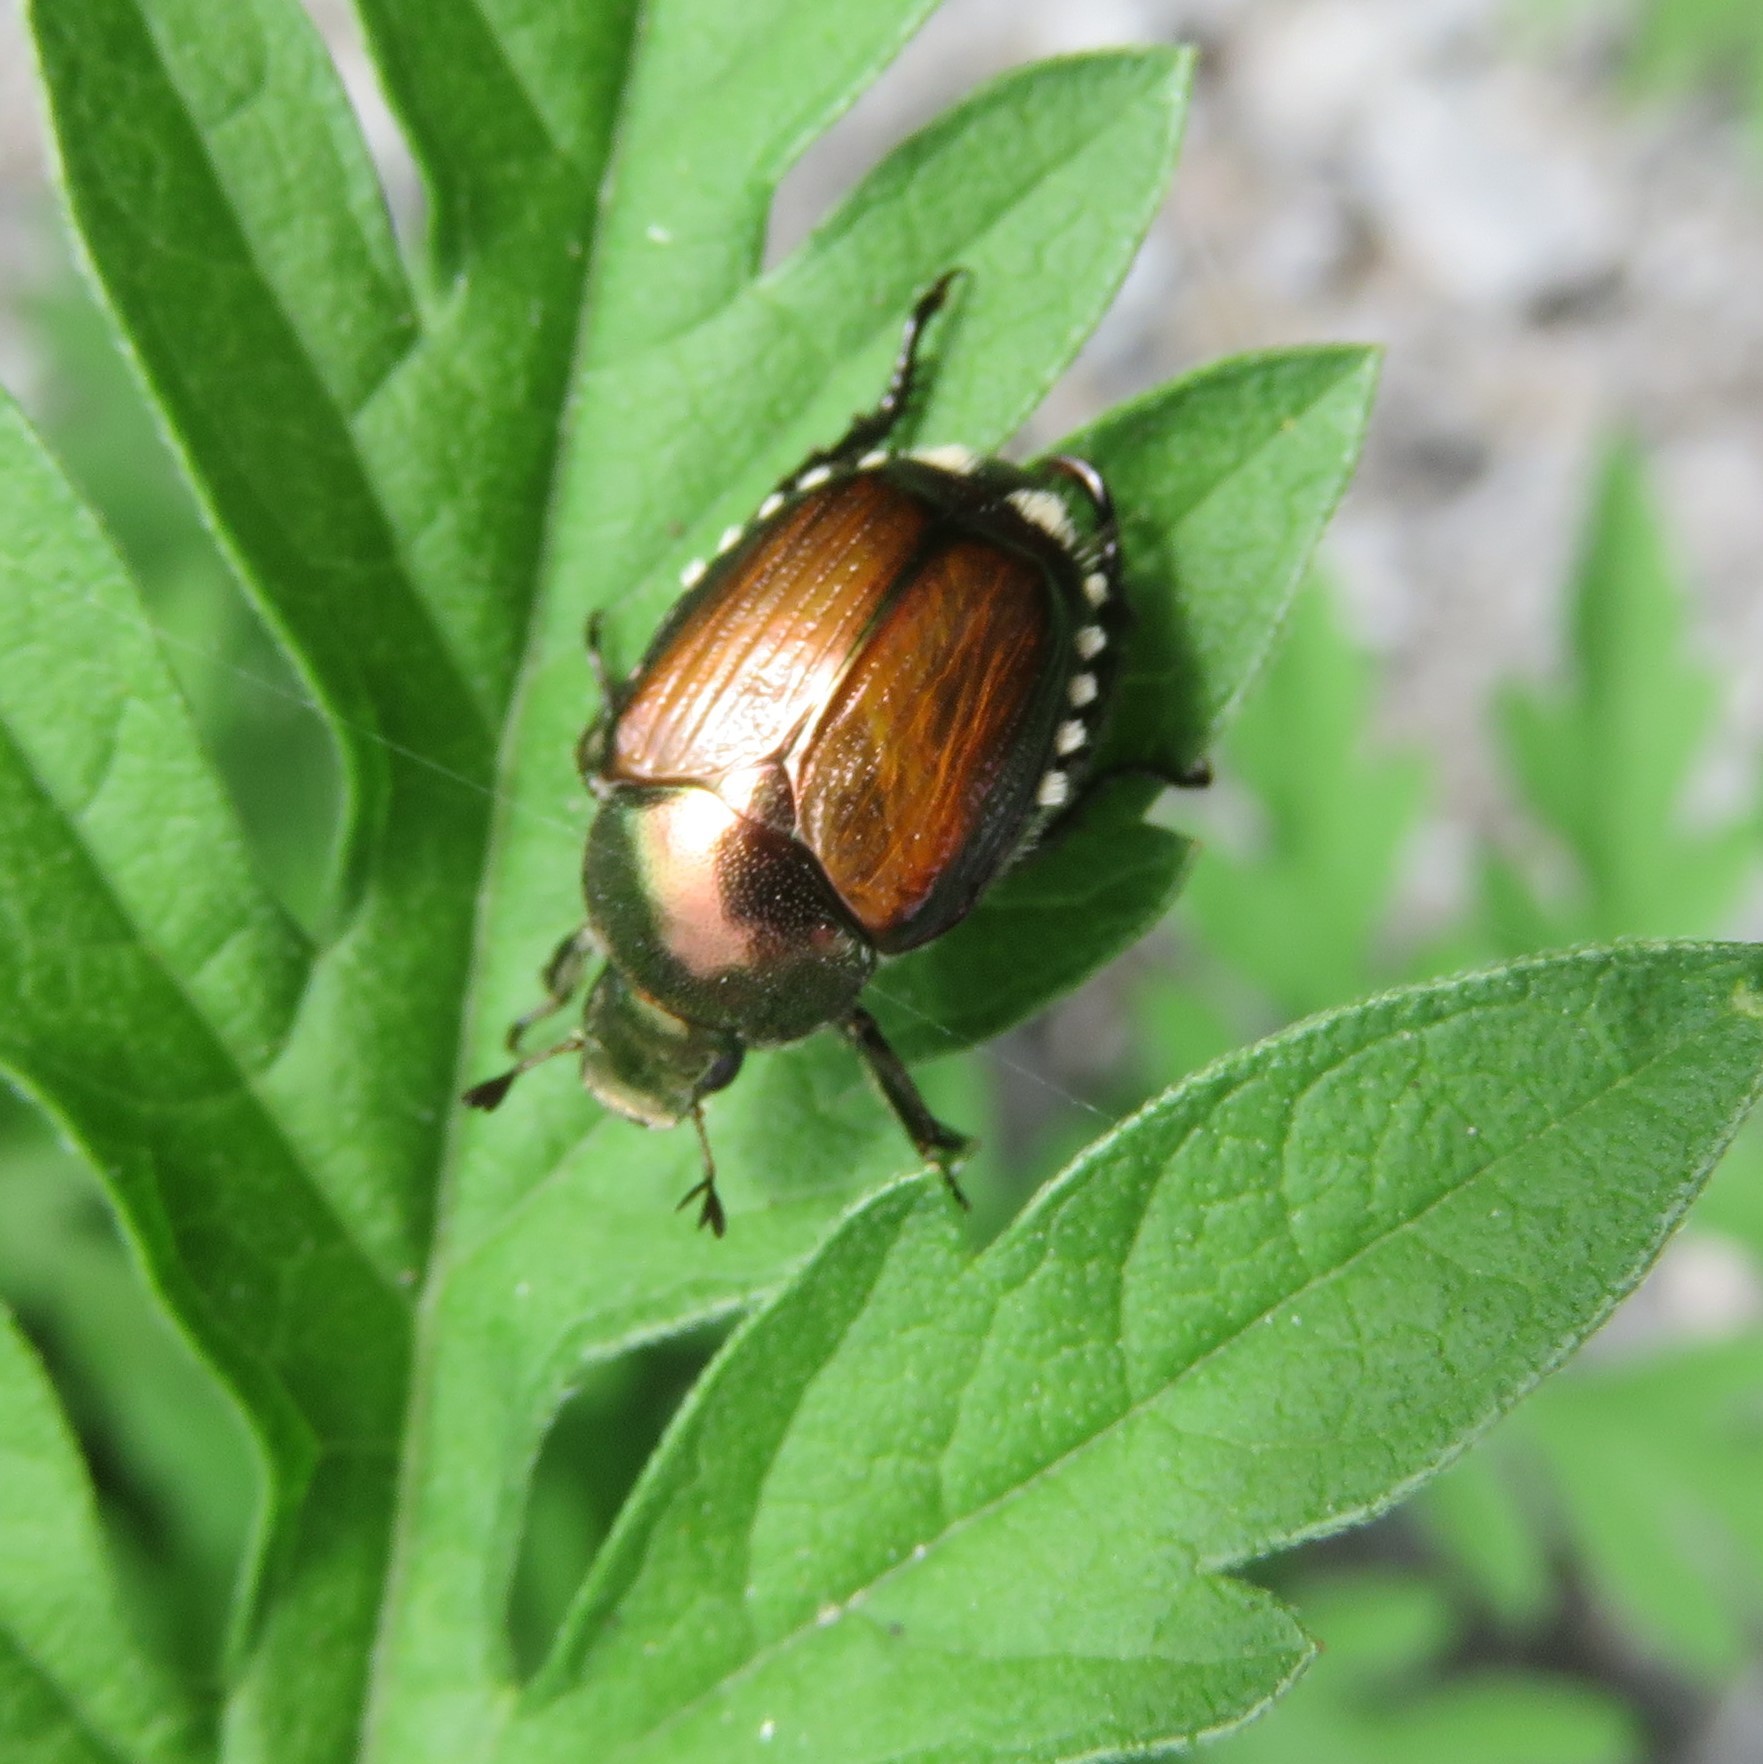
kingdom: Animalia
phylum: Arthropoda
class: Insecta
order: Coleoptera
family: Scarabaeidae
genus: Popillia
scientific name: Popillia japonica
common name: Japanese beetle
